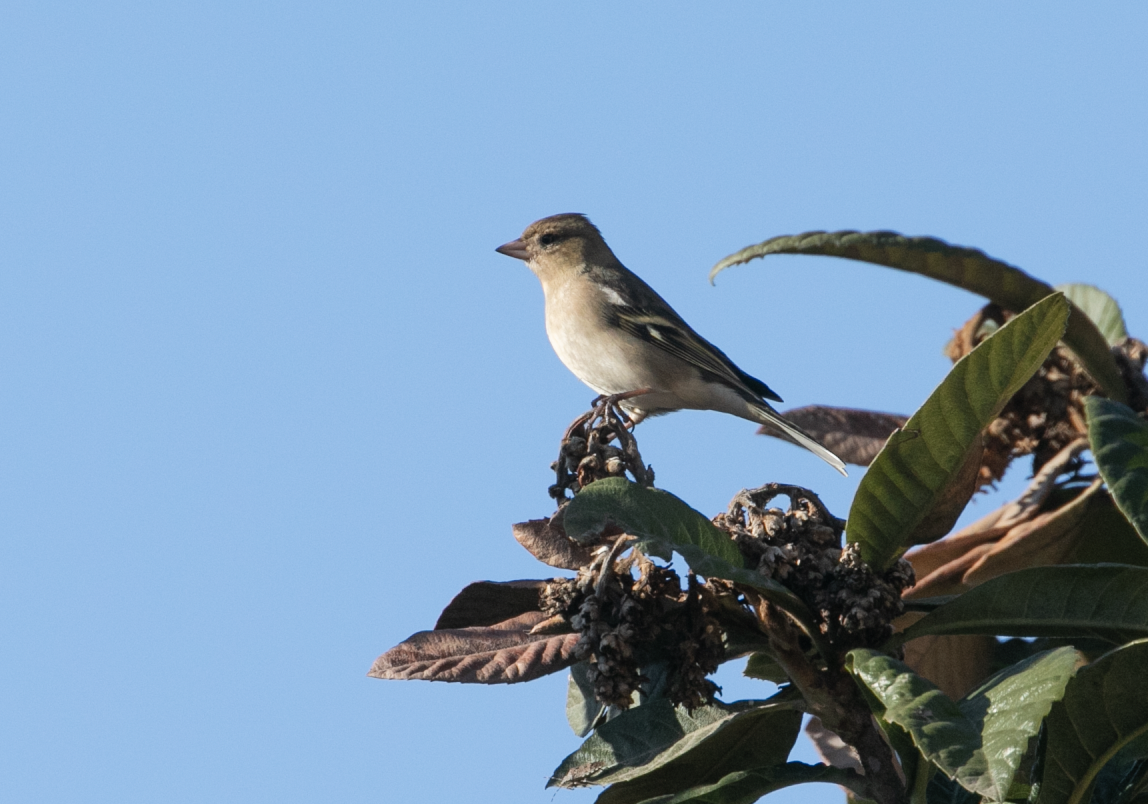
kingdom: Animalia
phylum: Chordata
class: Aves
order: Passeriformes
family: Fringillidae
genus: Fringilla
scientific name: Fringilla coelebs
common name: Common chaffinch
